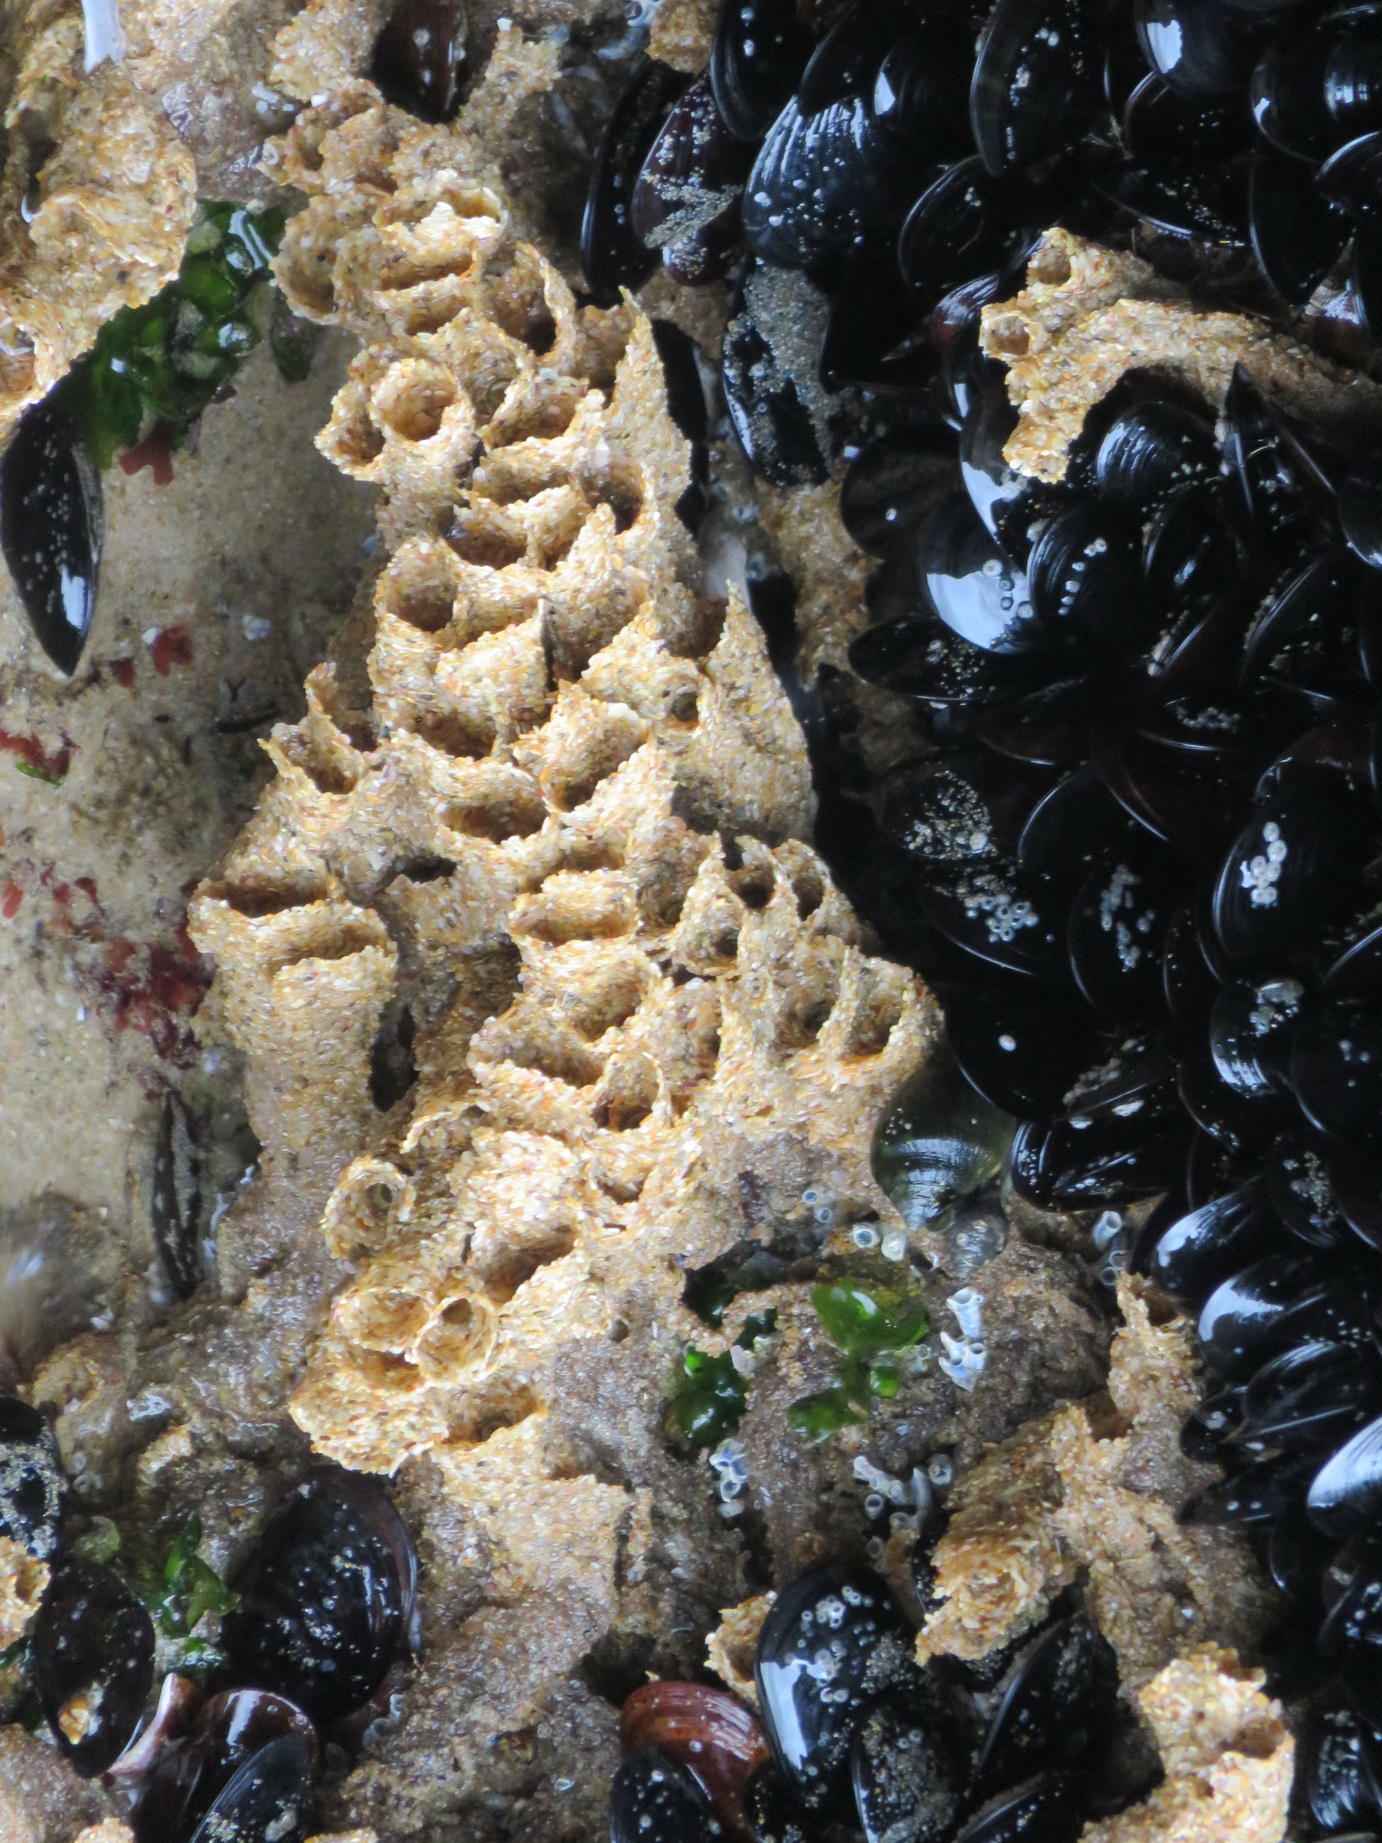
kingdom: Animalia
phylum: Annelida
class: Polychaeta
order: Sabellida
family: Sabellariidae
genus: Gunnarea
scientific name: Gunnarea gaimardi
